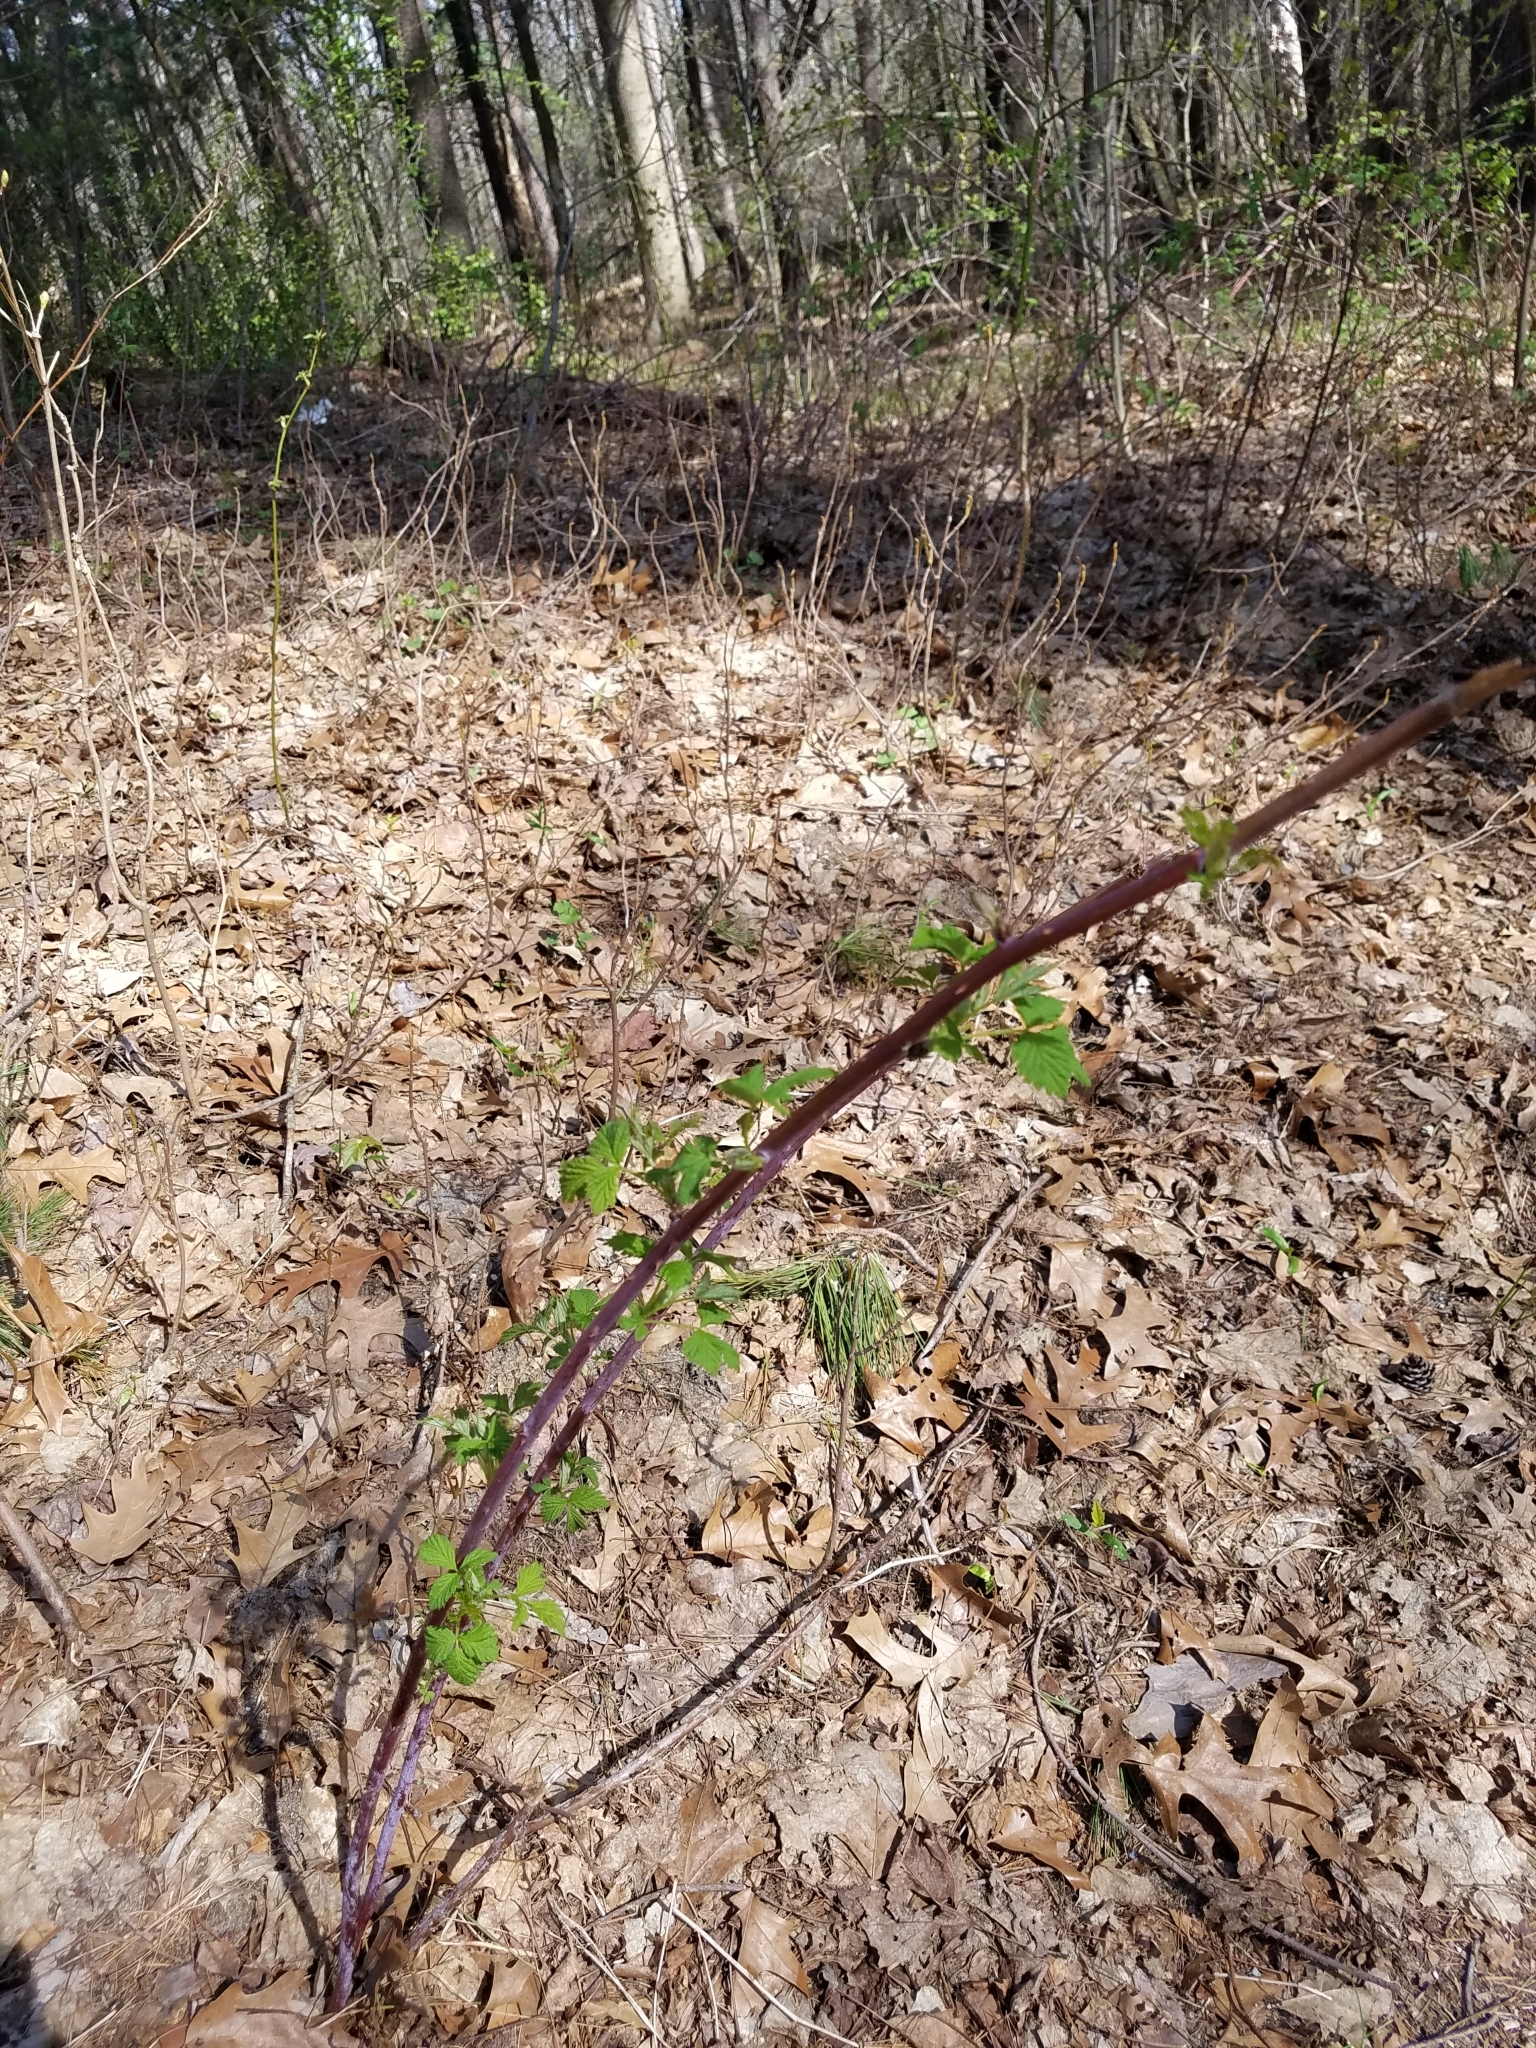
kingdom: Plantae
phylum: Tracheophyta
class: Magnoliopsida
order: Rosales
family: Rosaceae
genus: Rubus
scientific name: Rubus occidentalis
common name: Black raspberry
